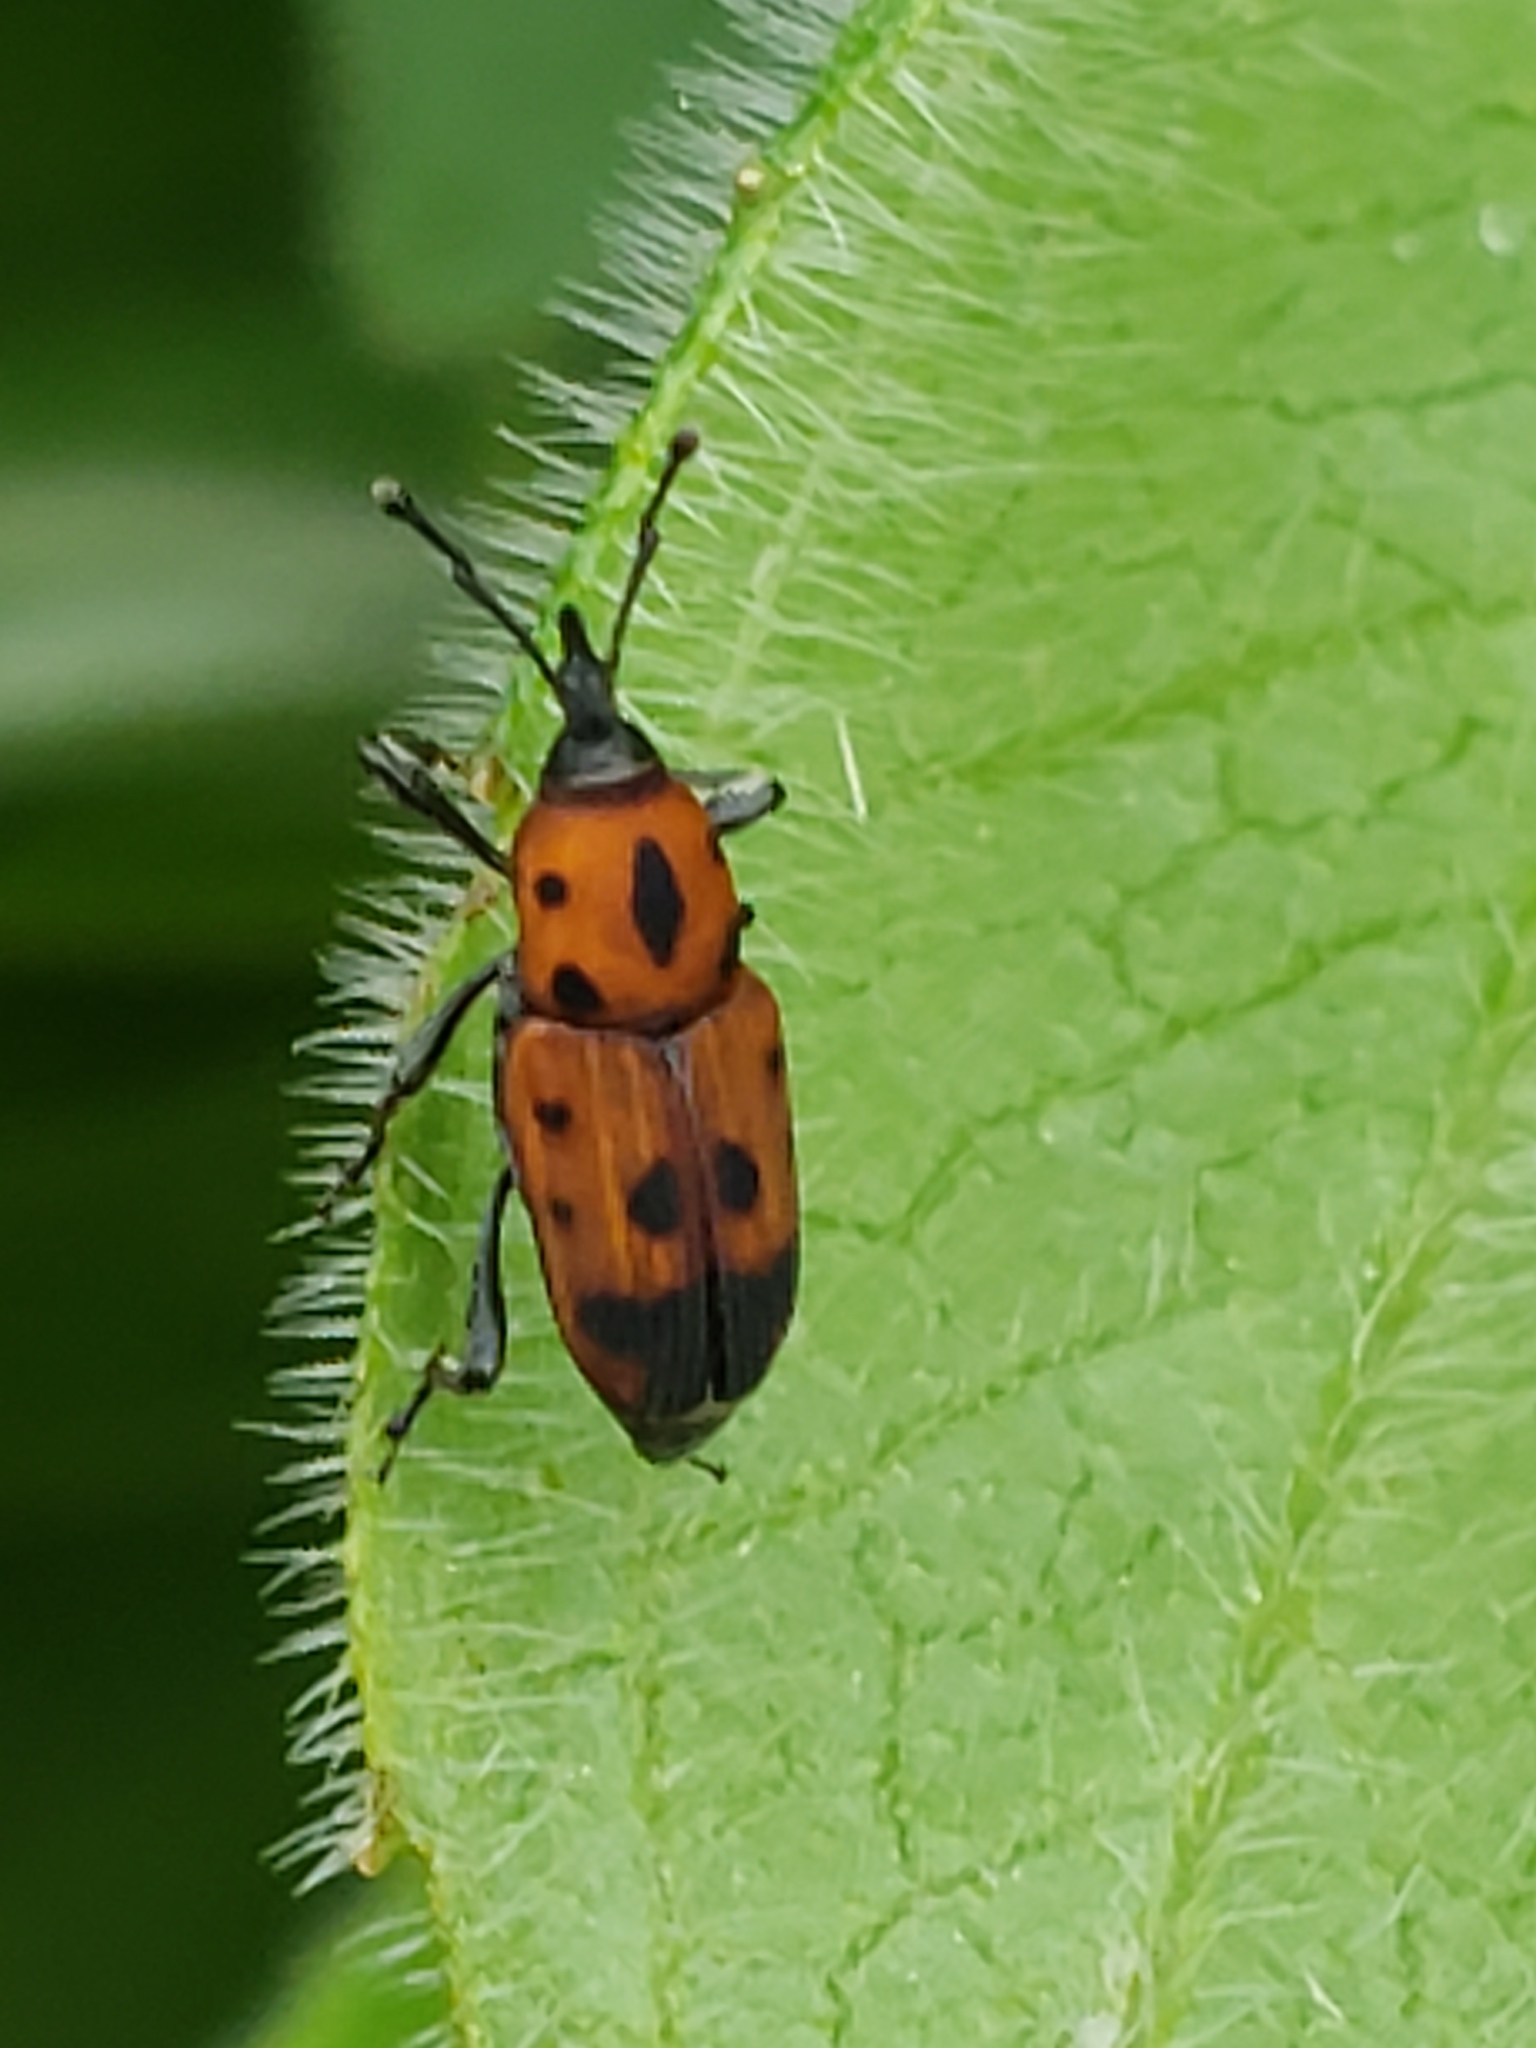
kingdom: Animalia
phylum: Arthropoda
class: Insecta
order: Coleoptera
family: Dryophthoridae
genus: Rhodobaenus
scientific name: Rhodobaenus quinquepunctatus
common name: Cocklebur weevil
